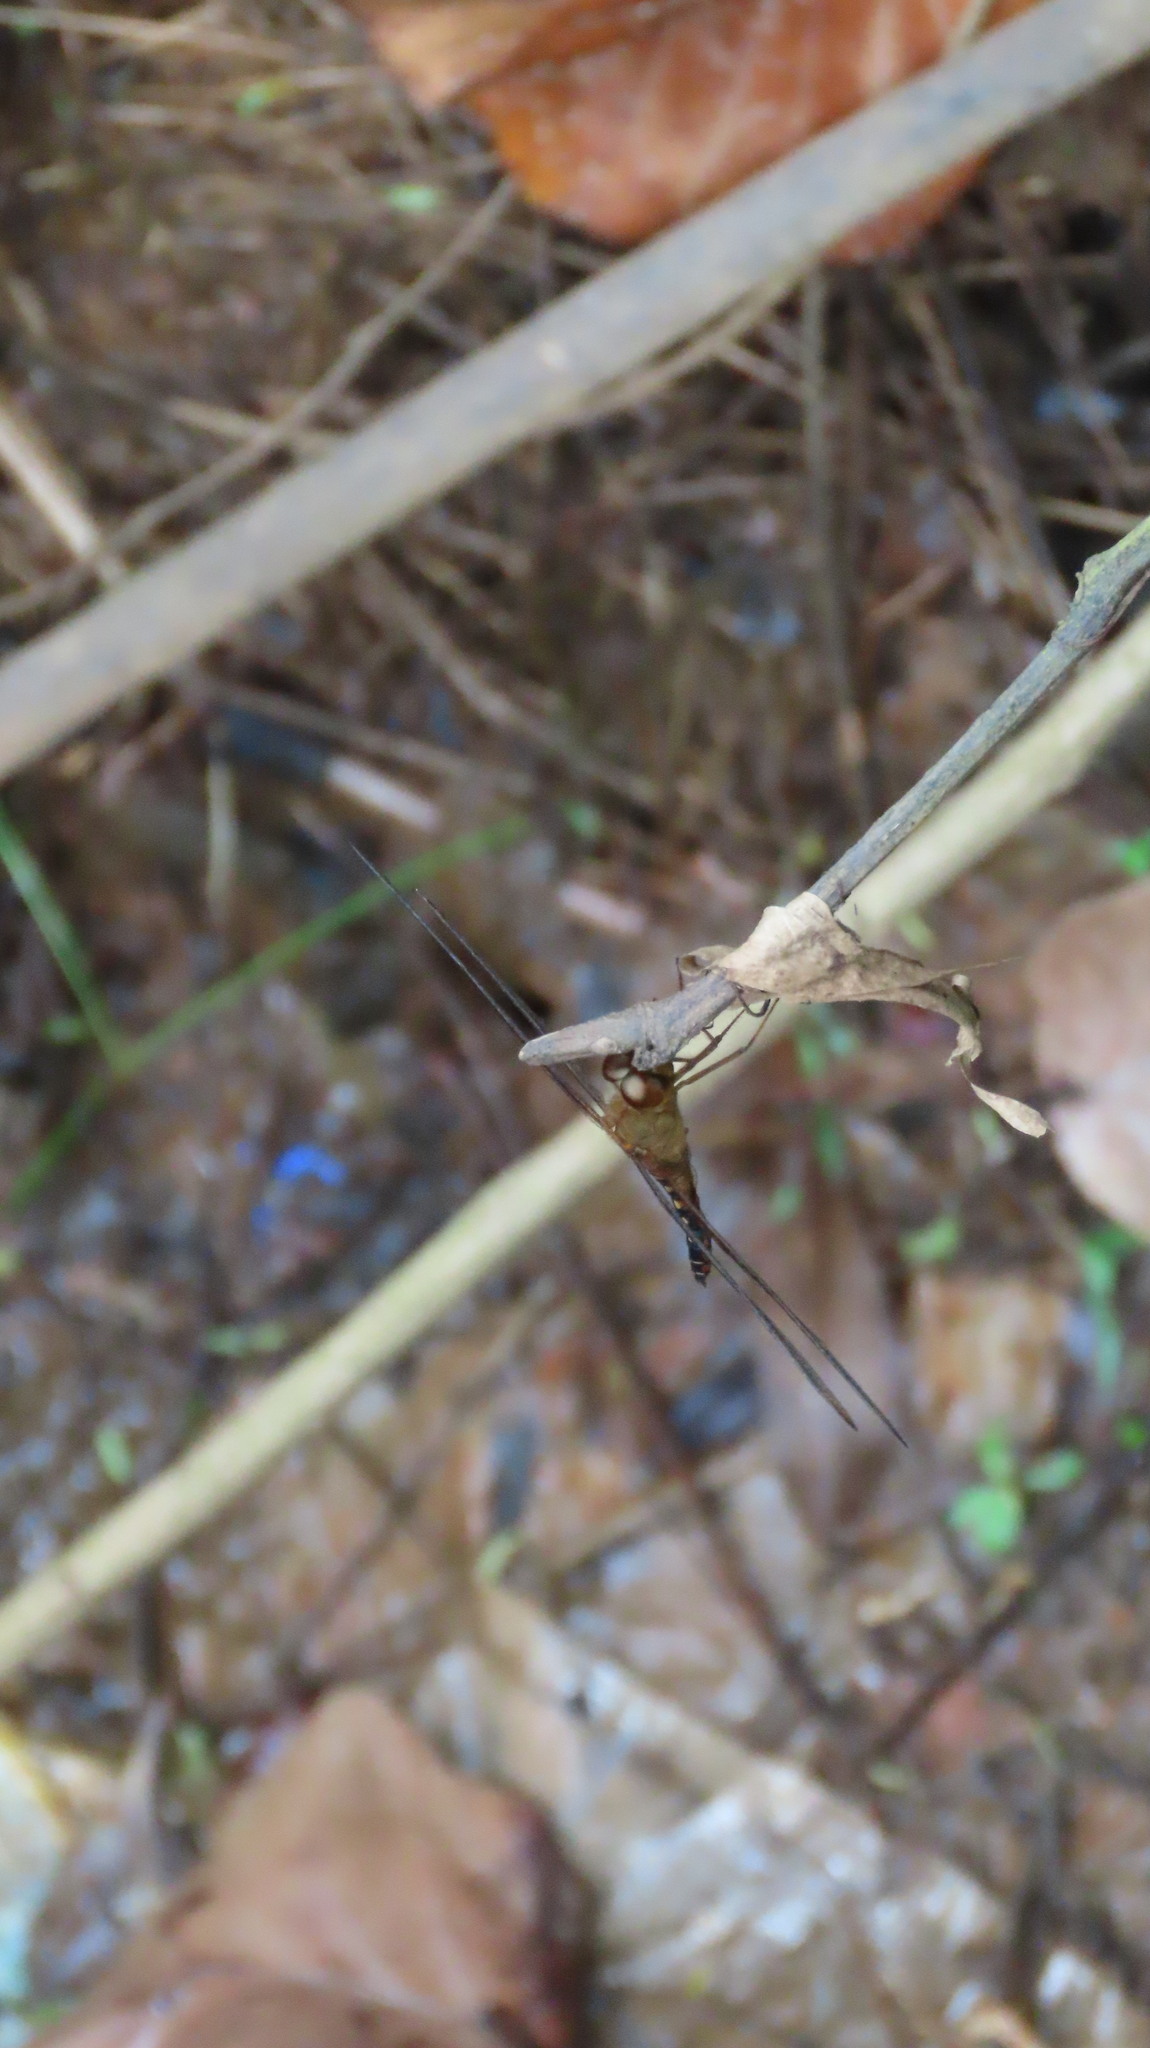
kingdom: Animalia
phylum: Arthropoda
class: Insecta
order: Odonata
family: Libellulidae
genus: Hydrobasileus
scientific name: Hydrobasileus croceus
